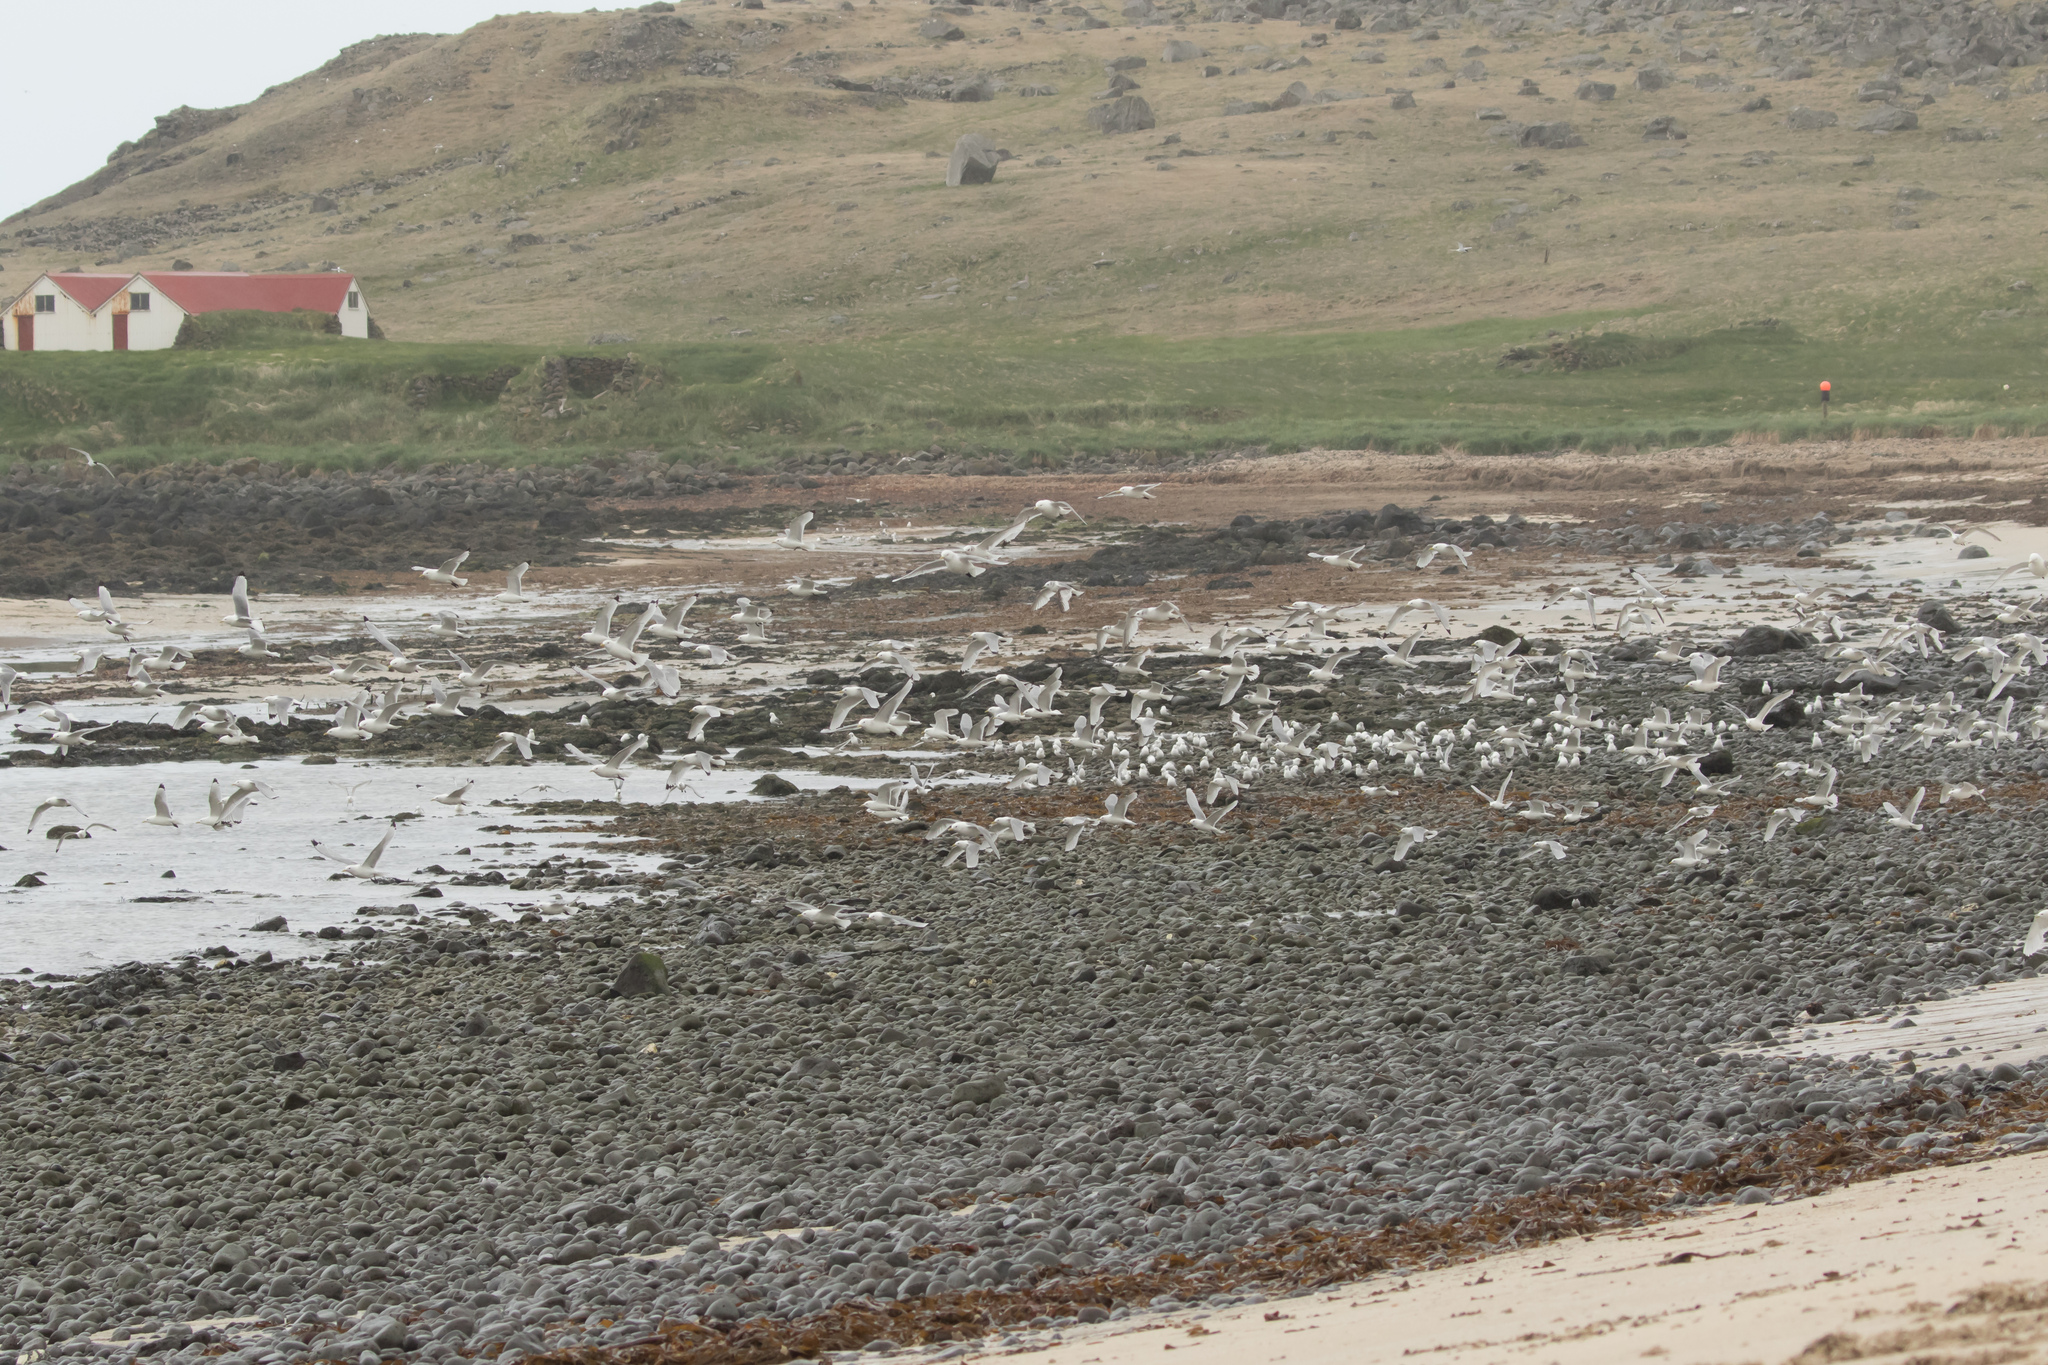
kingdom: Animalia
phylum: Chordata
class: Aves
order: Charadriiformes
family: Laridae
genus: Rissa
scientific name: Rissa tridactyla
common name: Black-legged kittiwake
